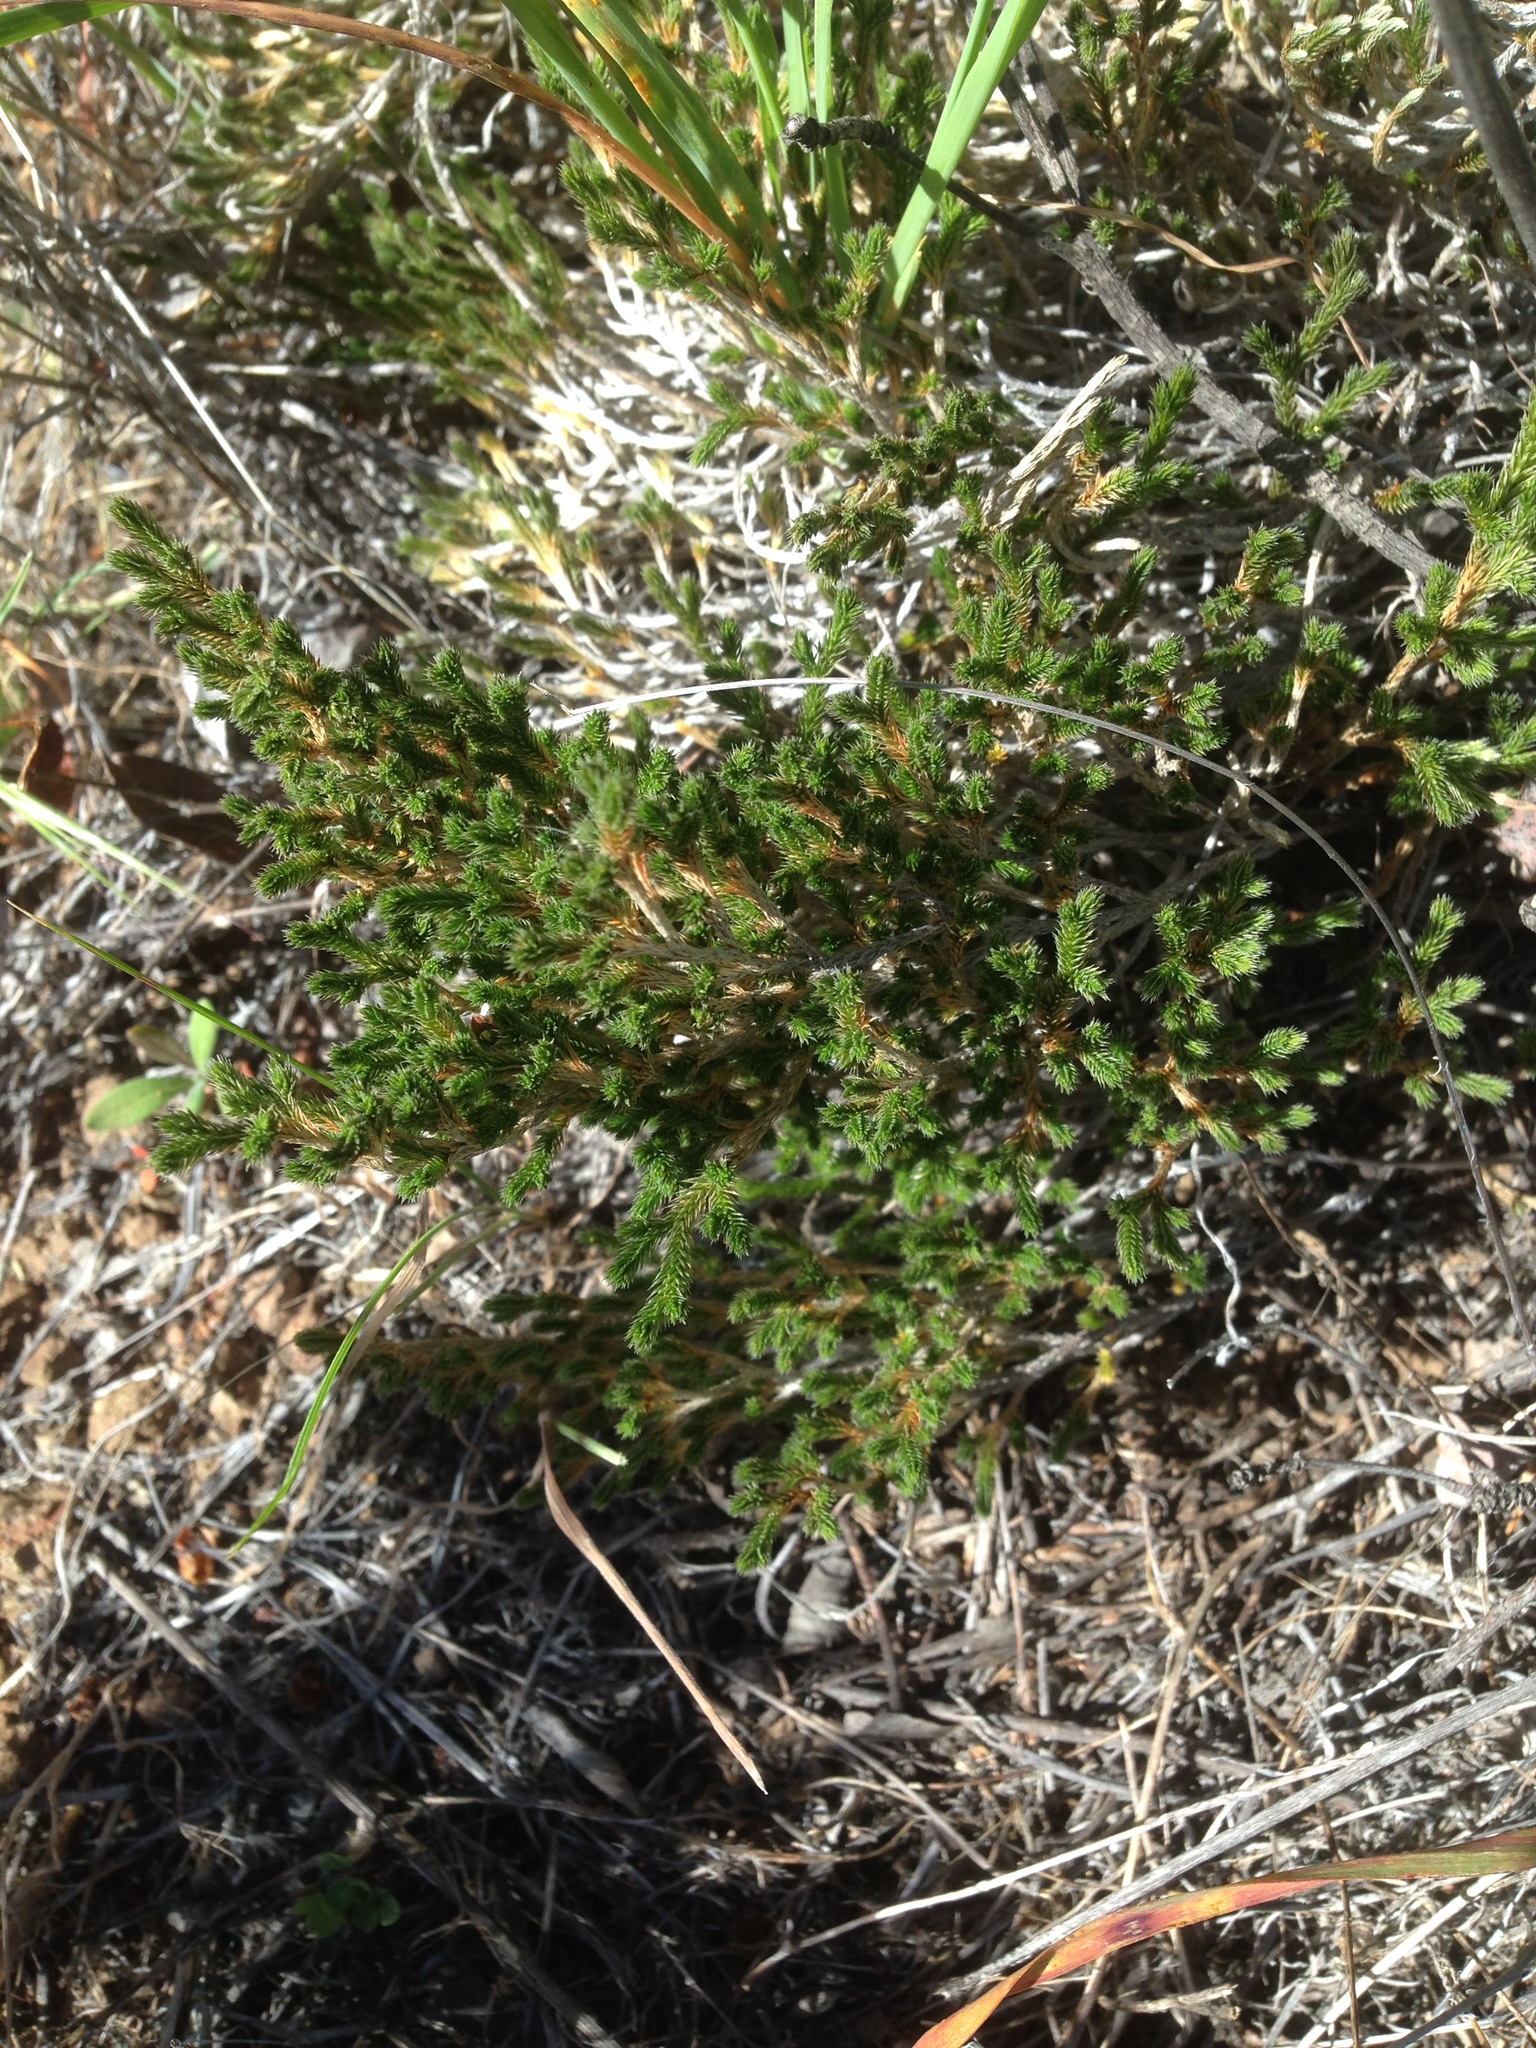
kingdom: Plantae
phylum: Tracheophyta
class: Lycopodiopsida
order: Selaginellales
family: Selaginellaceae
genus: Selaginella
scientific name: Selaginella bigelovii
